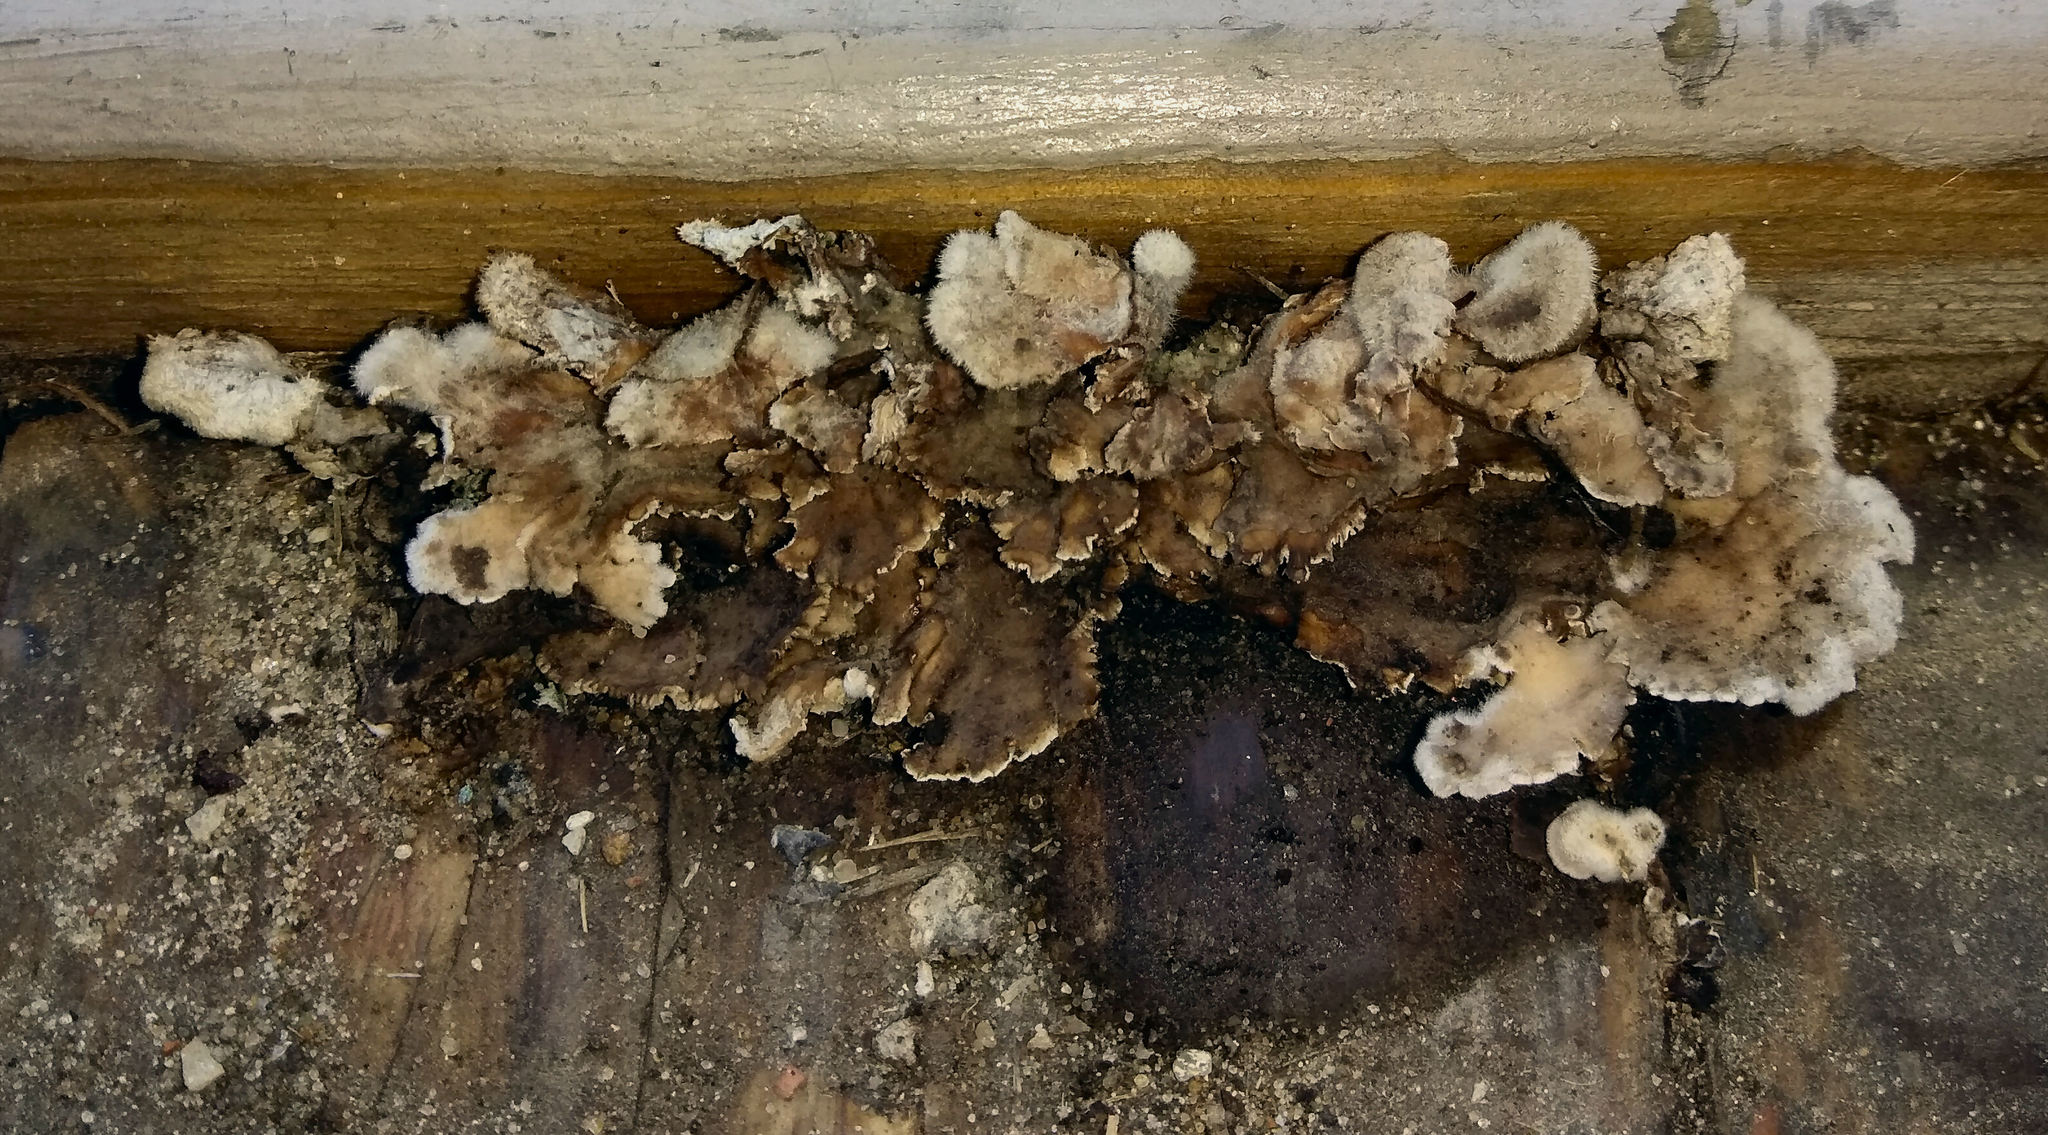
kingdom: Fungi
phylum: Basidiomycota
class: Agaricomycetes
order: Agaricales
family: Schizophyllaceae
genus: Schizophyllum
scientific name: Schizophyllum commune
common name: Common porecrust
